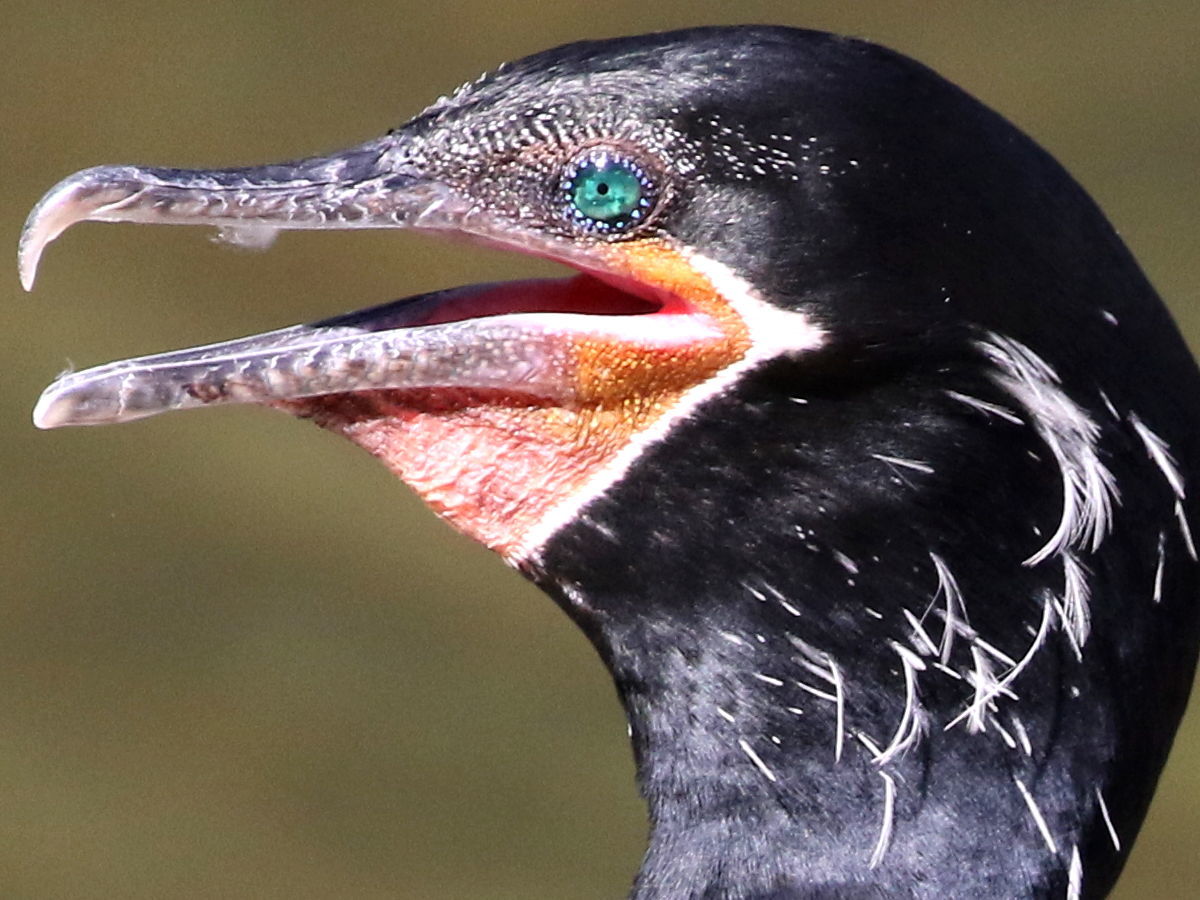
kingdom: Animalia
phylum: Chordata
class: Aves
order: Suliformes
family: Phalacrocoracidae
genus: Phalacrocorax
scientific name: Phalacrocorax brasilianus
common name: Neotropic cormorant
